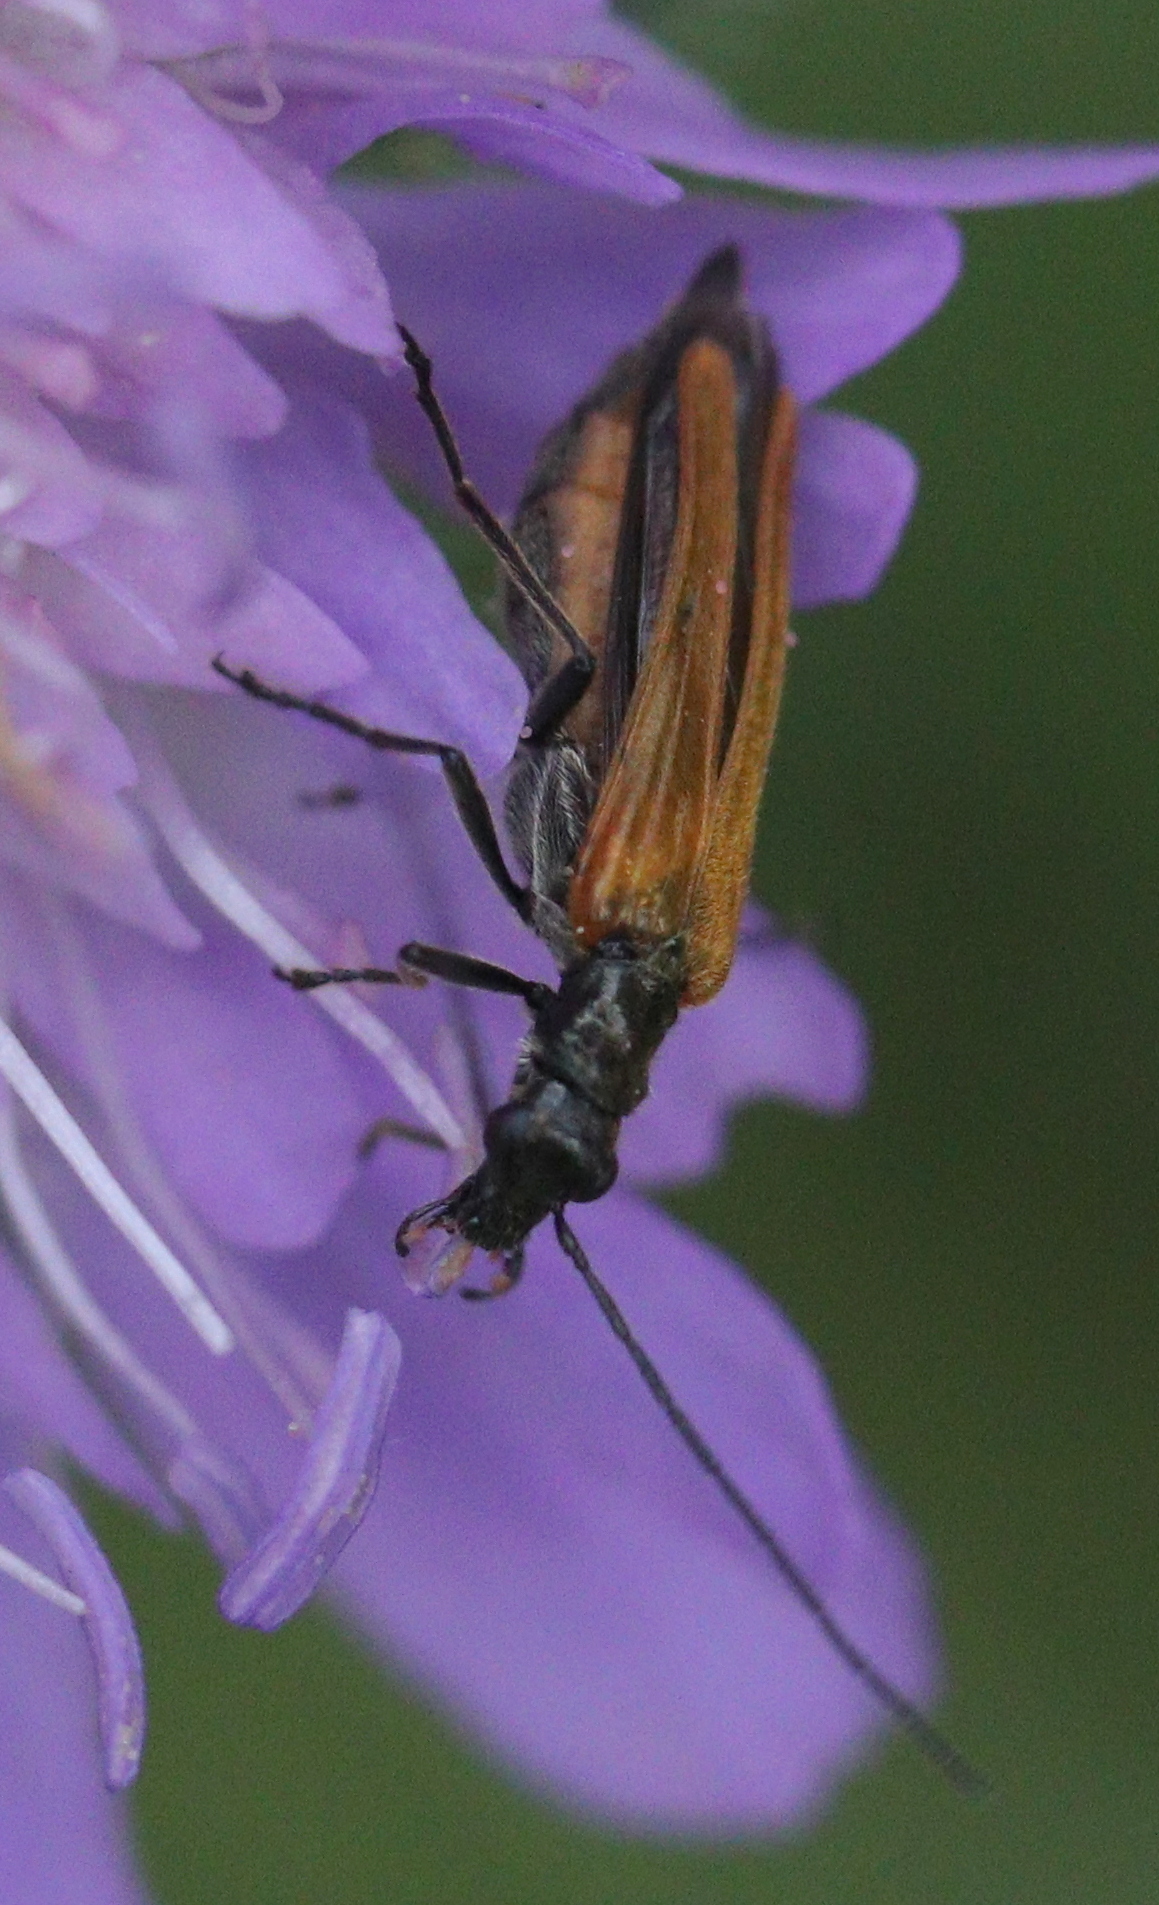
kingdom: Animalia
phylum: Arthropoda
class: Insecta
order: Coleoptera
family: Oedemeridae
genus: Oedemera
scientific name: Oedemera femorata
